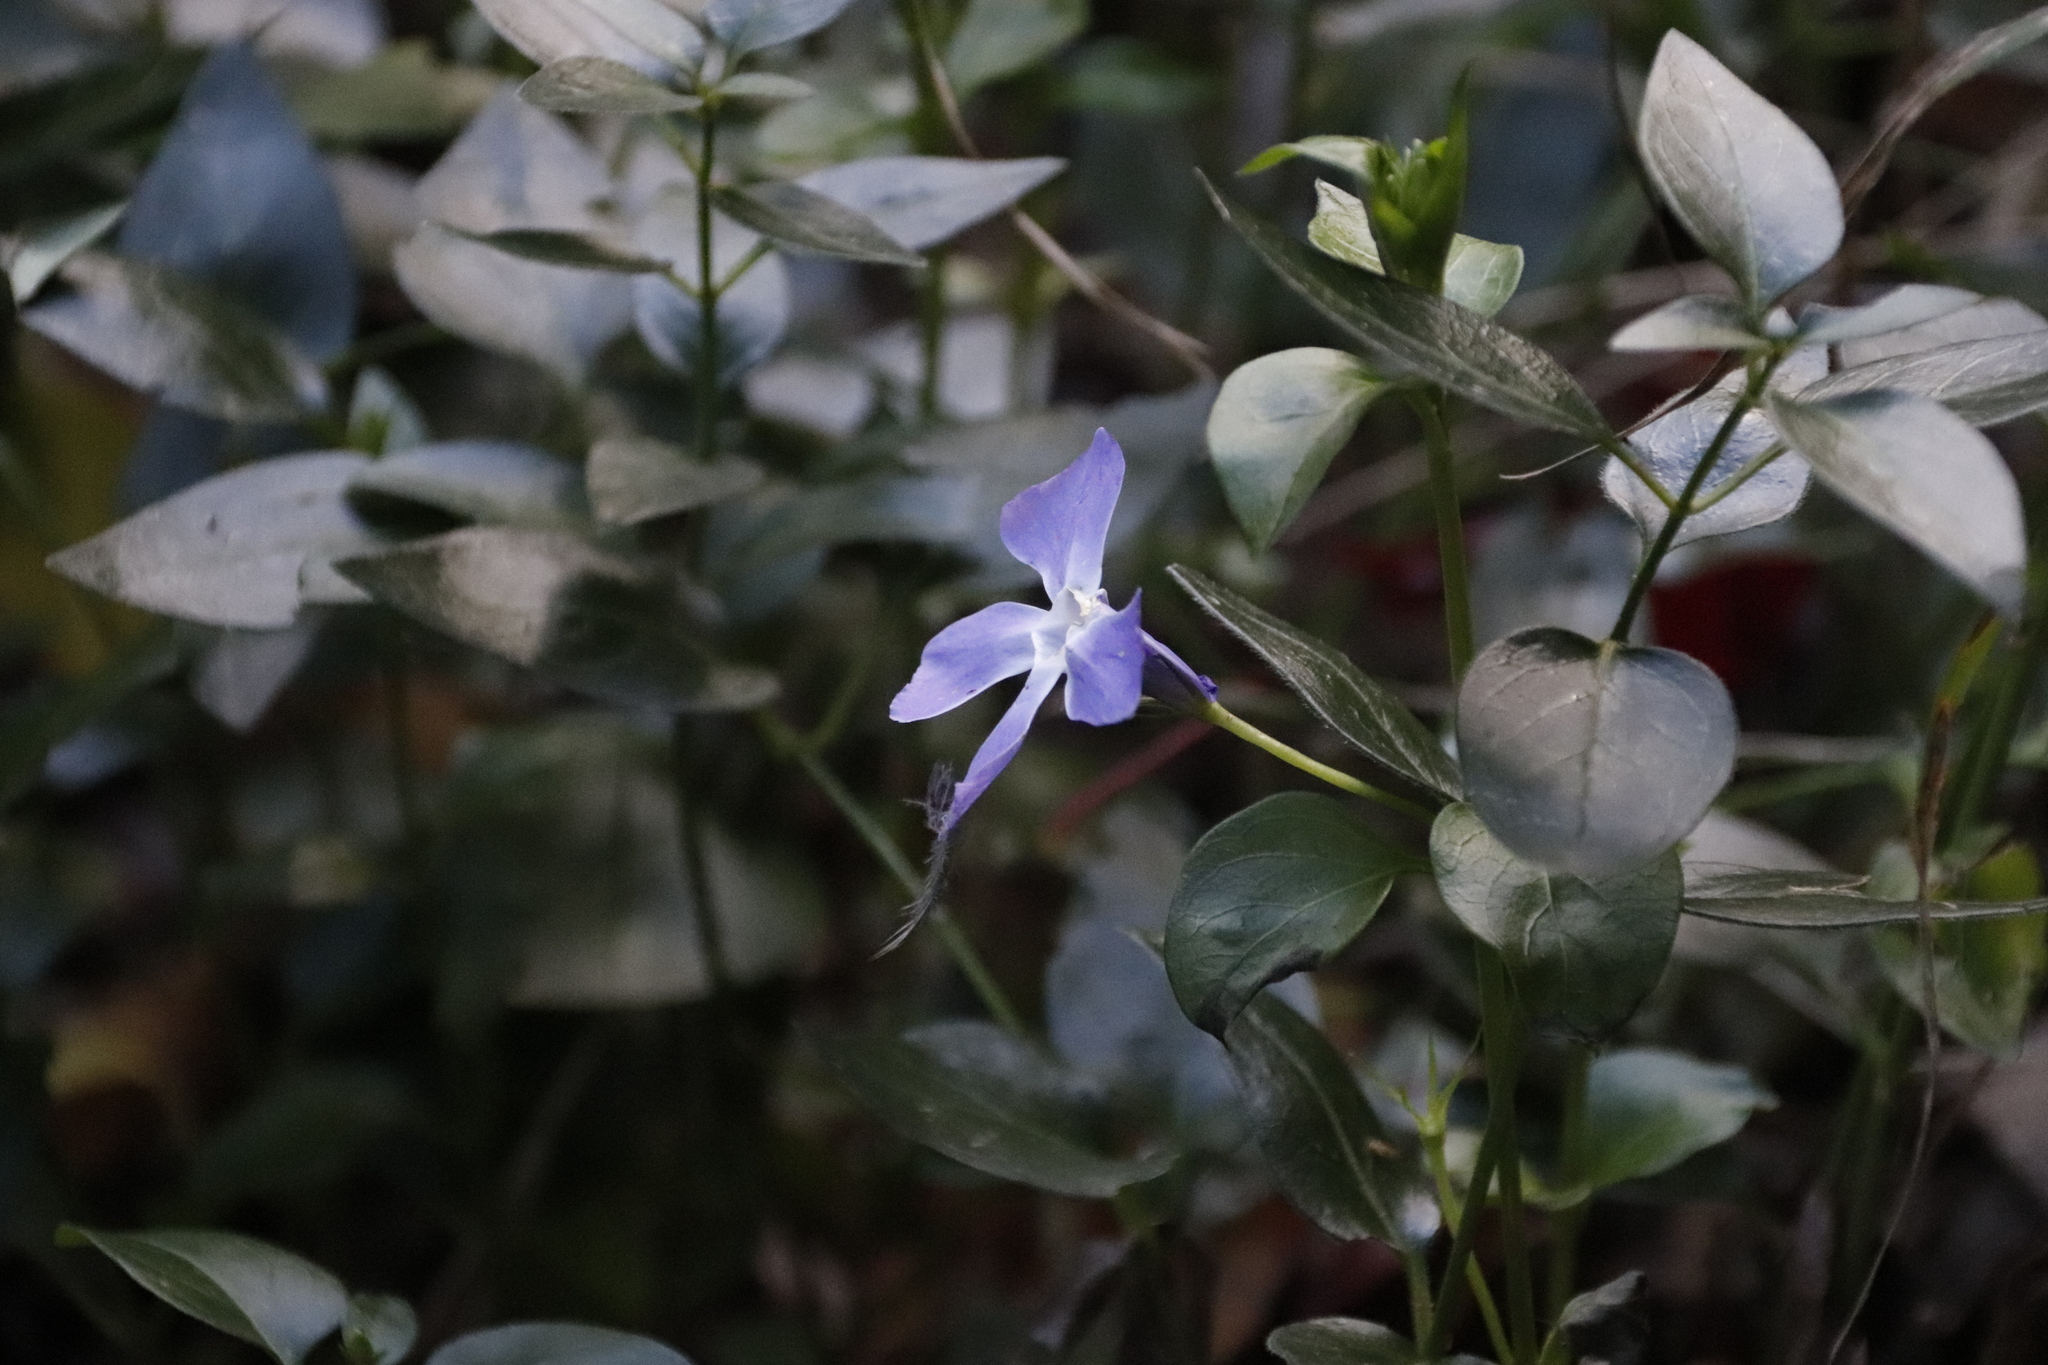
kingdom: Plantae
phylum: Tracheophyta
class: Magnoliopsida
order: Gentianales
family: Apocynaceae
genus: Vinca
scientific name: Vinca major
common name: Greater periwinkle
